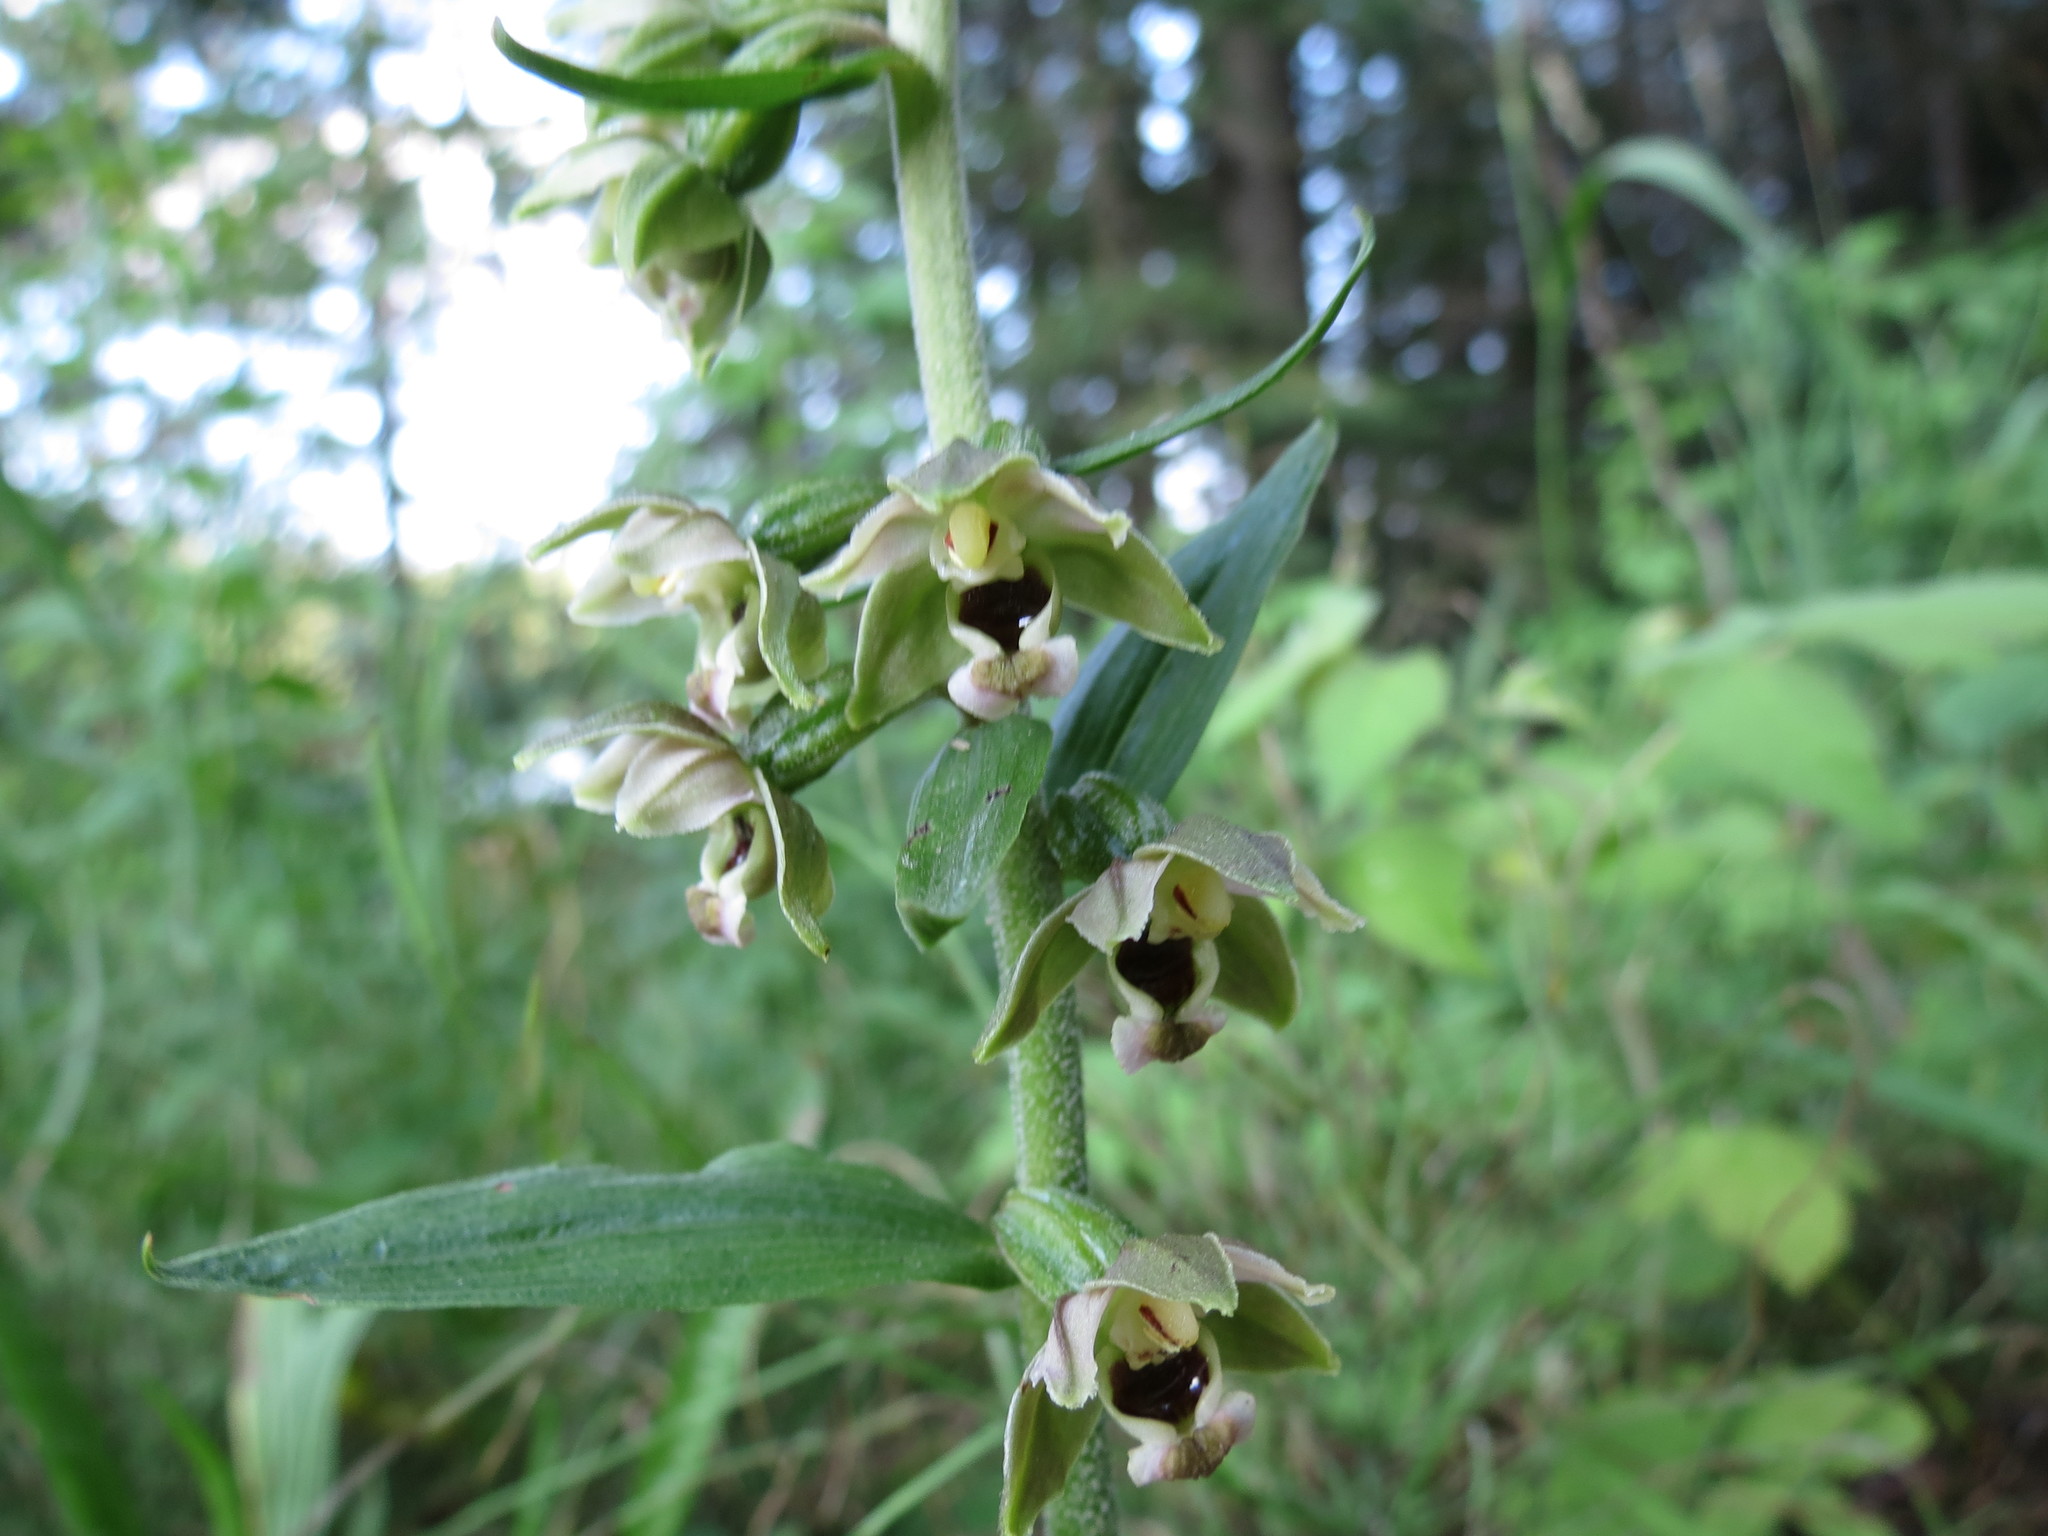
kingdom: Plantae
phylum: Tracheophyta
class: Liliopsida
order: Asparagales
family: Orchidaceae
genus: Epipactis
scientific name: Epipactis helleborine
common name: Broad-leaved helleborine
